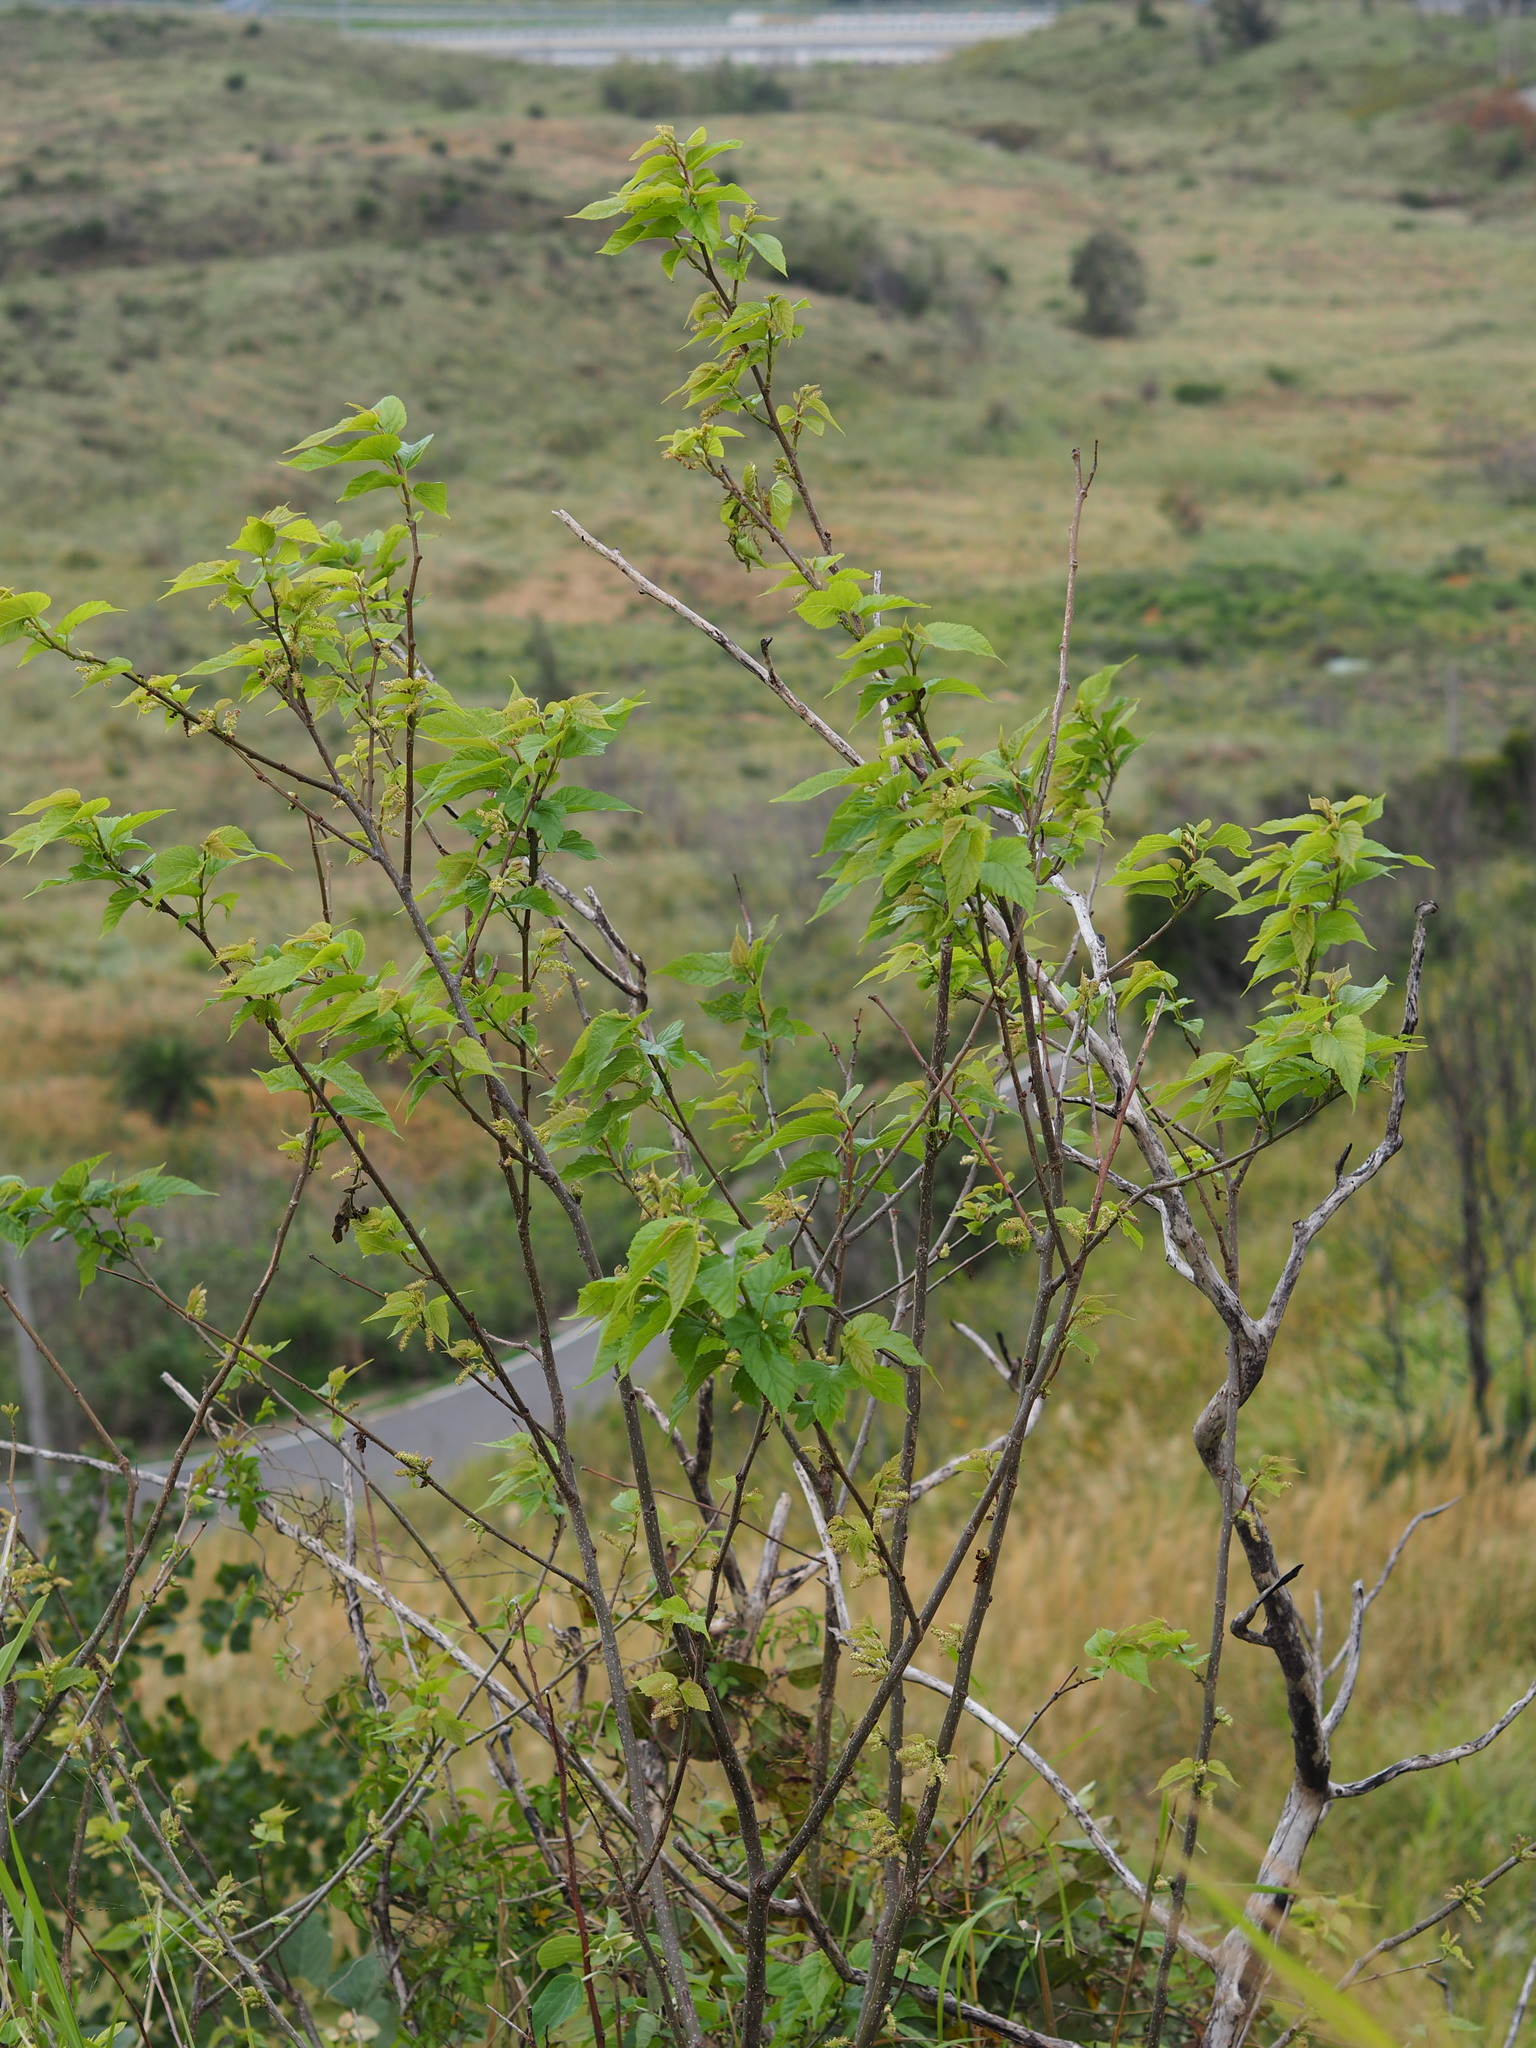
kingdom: Plantae
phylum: Tracheophyta
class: Magnoliopsida
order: Rosales
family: Moraceae
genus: Morus
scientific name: Morus indica
